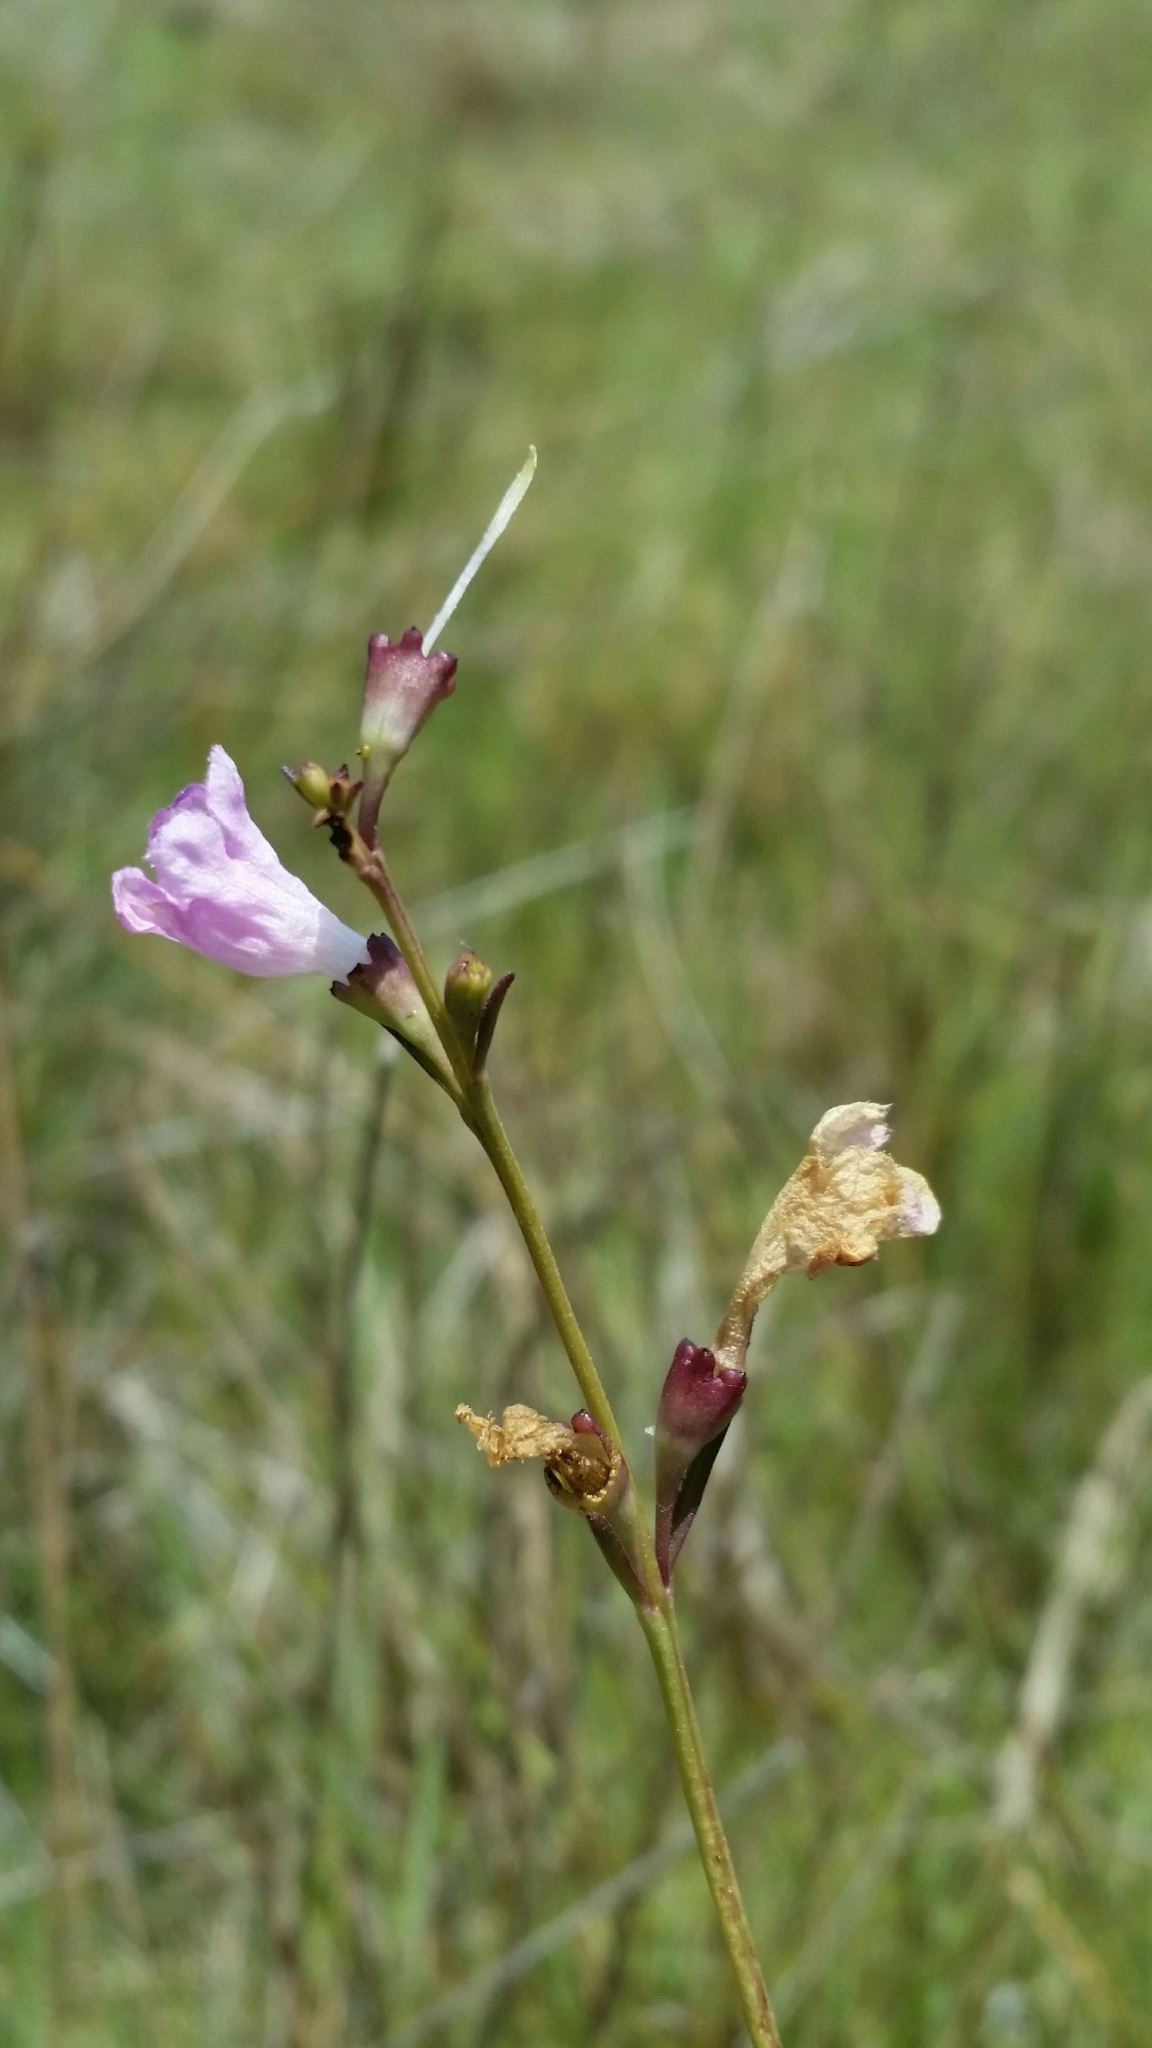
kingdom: Plantae
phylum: Tracheophyta
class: Magnoliopsida
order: Lamiales
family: Orobanchaceae
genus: Agalinis
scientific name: Agalinis maritima
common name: Saltmarsh agalinis
